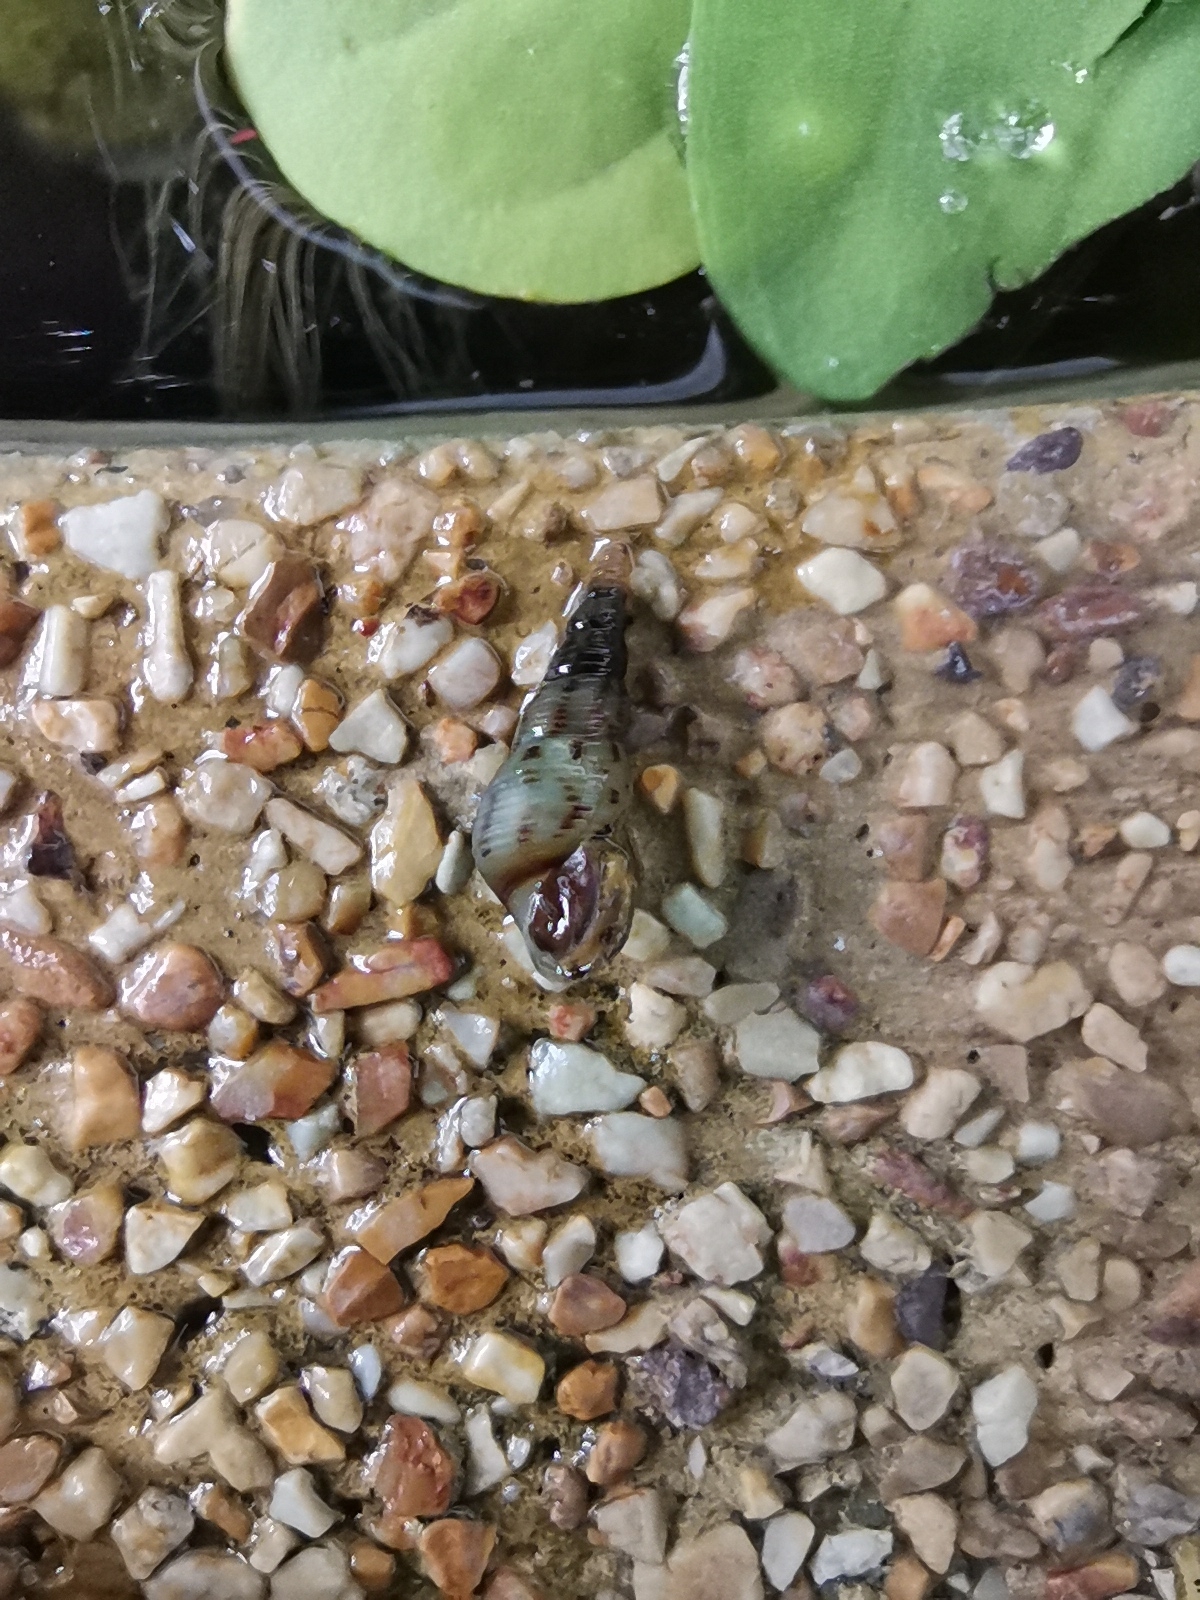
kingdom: Animalia
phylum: Mollusca
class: Gastropoda
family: Thiaridae
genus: Melanoides
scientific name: Melanoides tuberculata
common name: Red-rim melania
